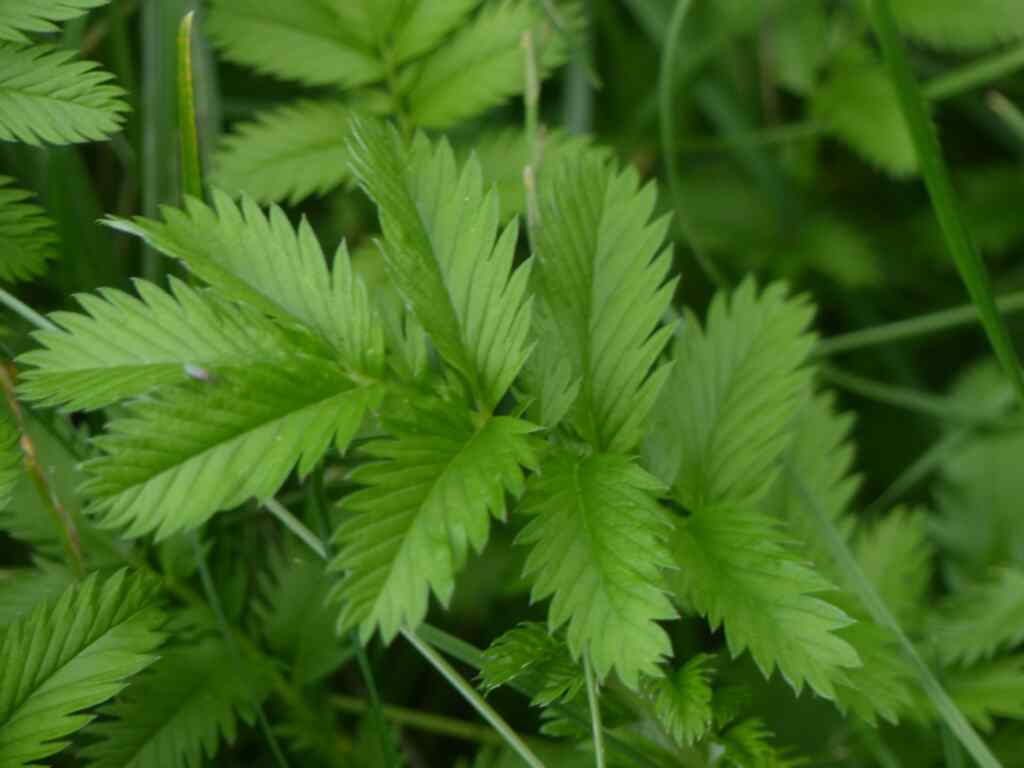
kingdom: Plantae
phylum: Tracheophyta
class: Magnoliopsida
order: Rosales
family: Rosaceae
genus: Argentina
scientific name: Argentina anserina
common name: Common silverweed
